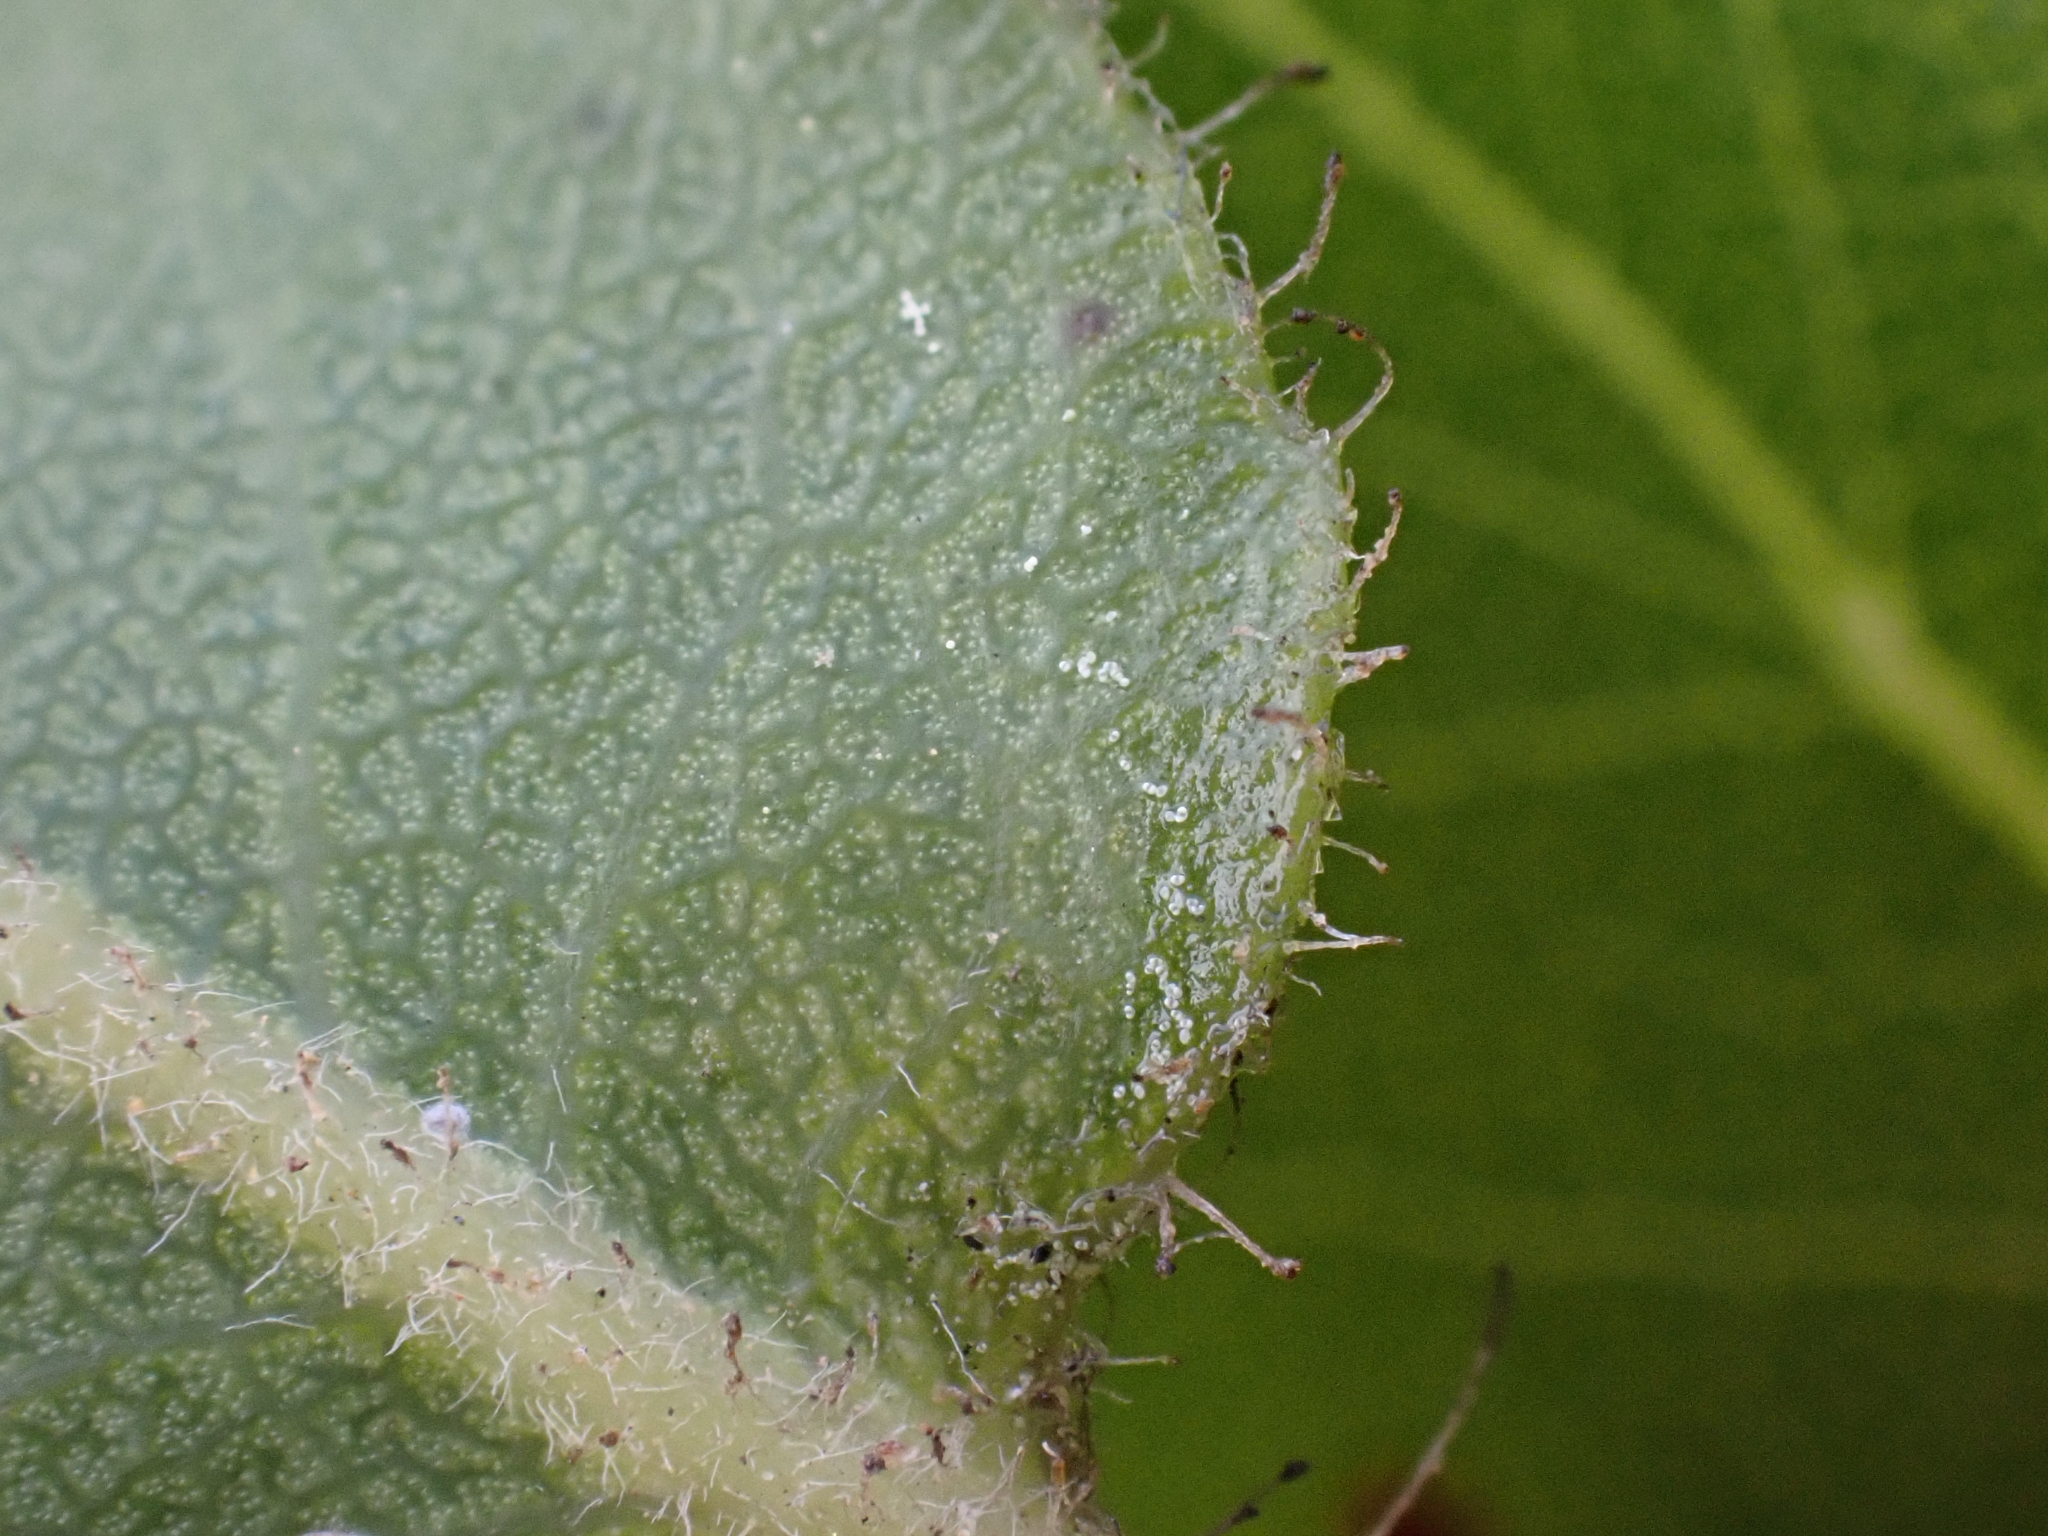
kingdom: Plantae
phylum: Tracheophyta
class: Magnoliopsida
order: Ericales
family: Ericaceae
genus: Arctostaphylos
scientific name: Arctostaphylos montaraensis
